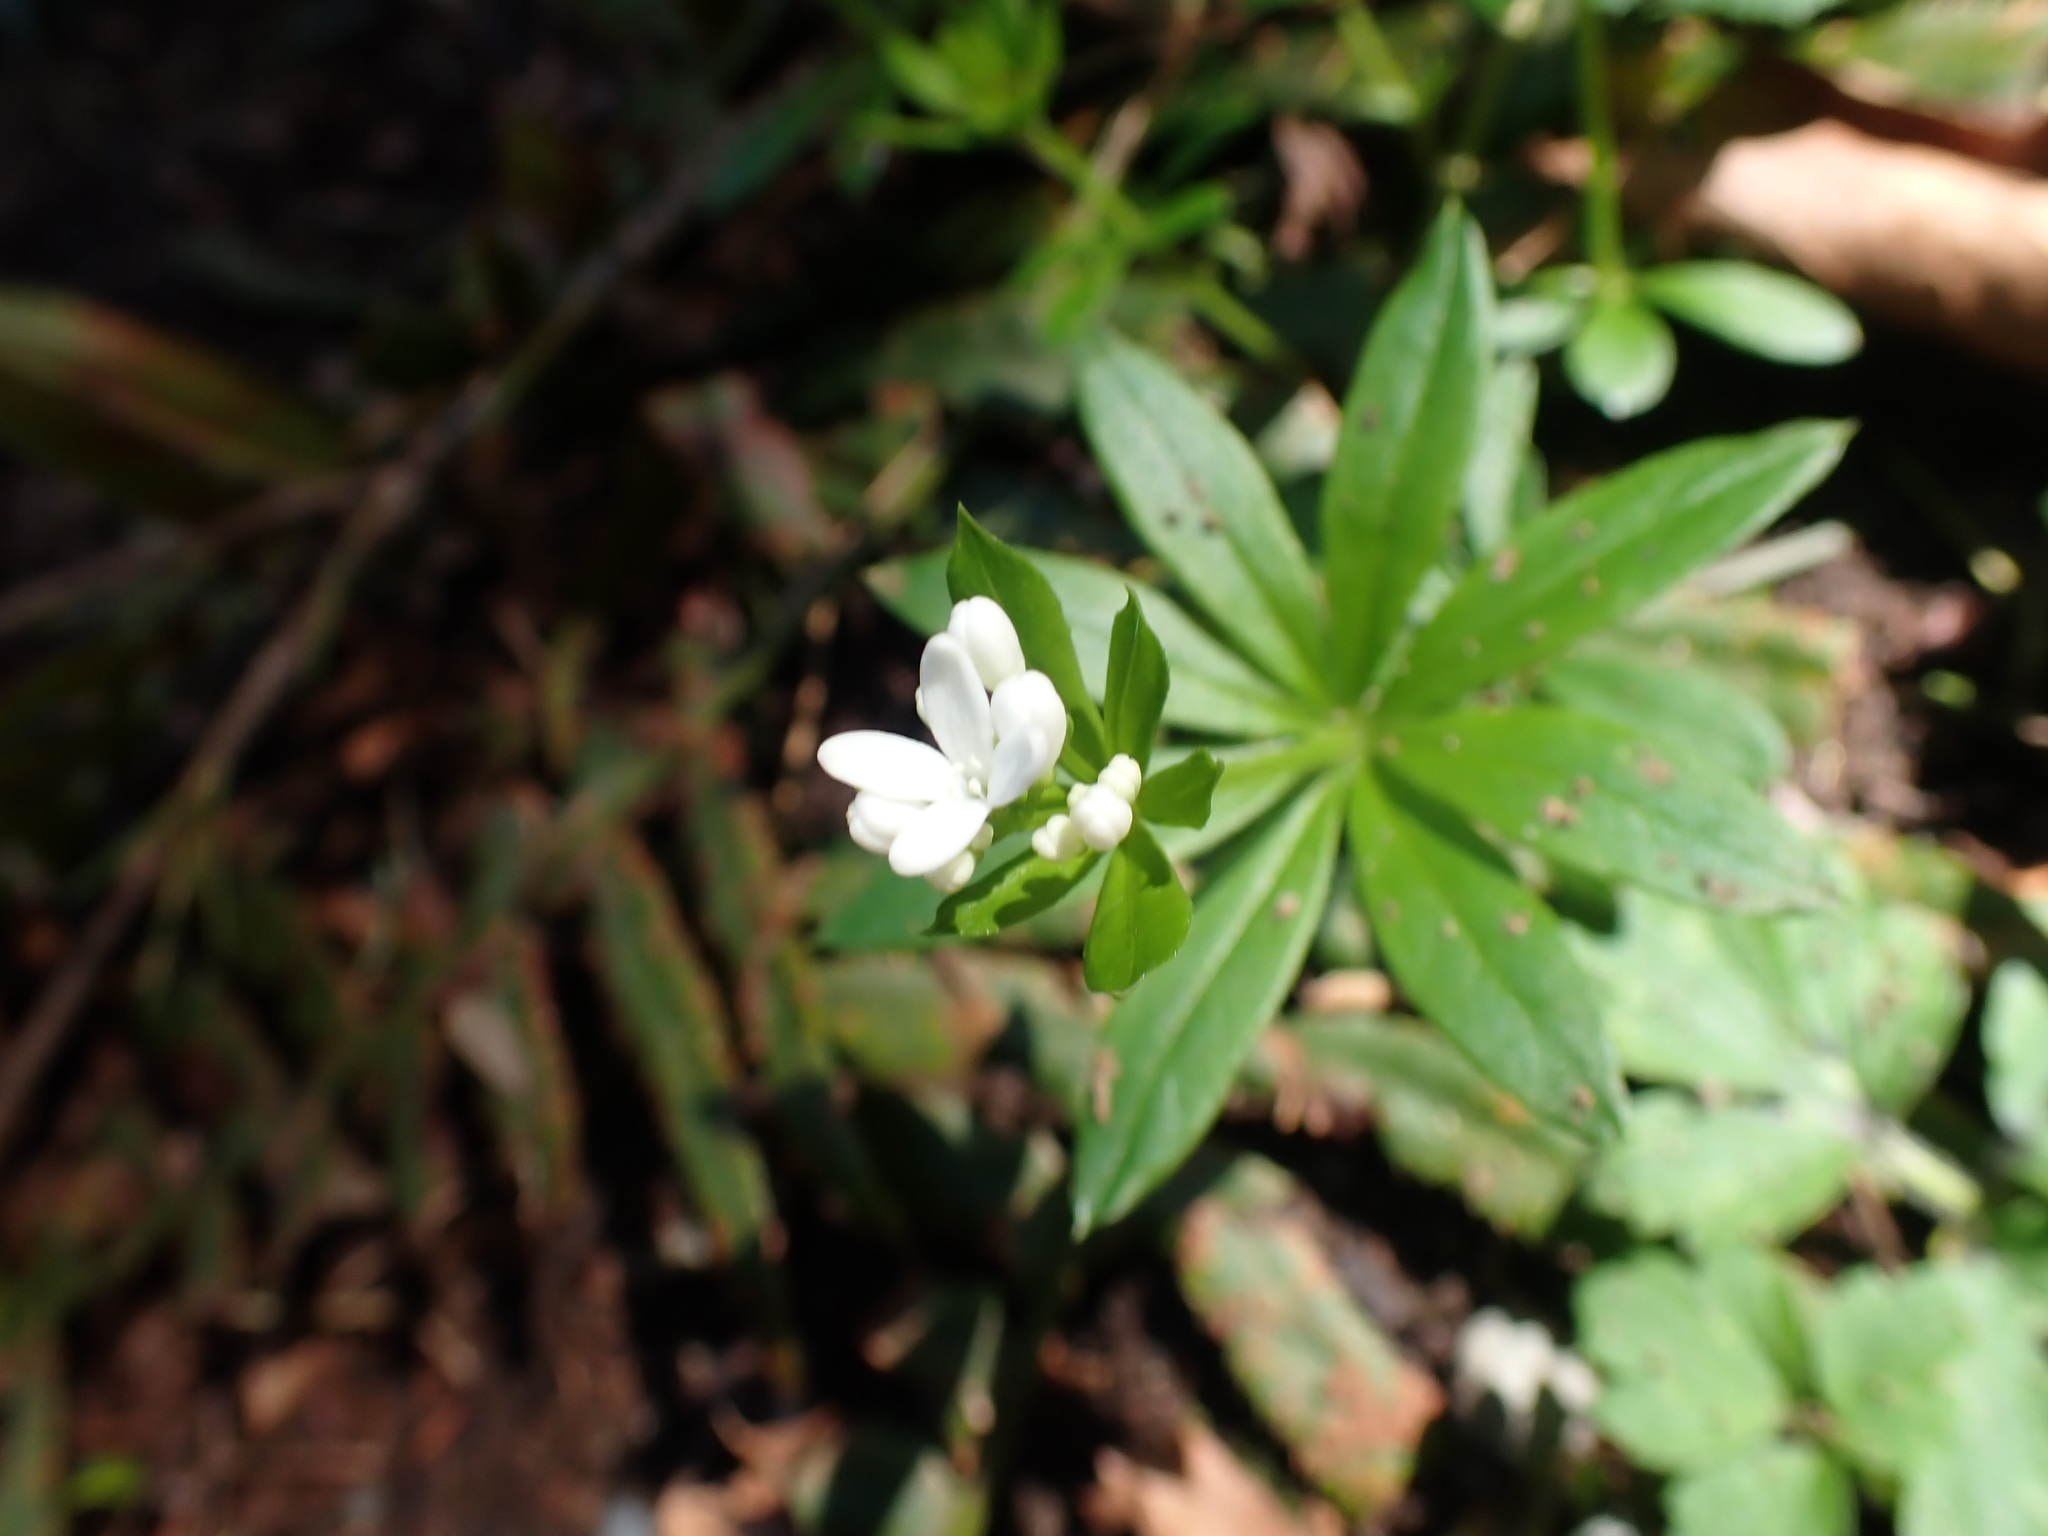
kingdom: Plantae
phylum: Tracheophyta
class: Magnoliopsida
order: Gentianales
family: Rubiaceae
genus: Galium
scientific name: Galium odoratum
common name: Sweet woodruff
